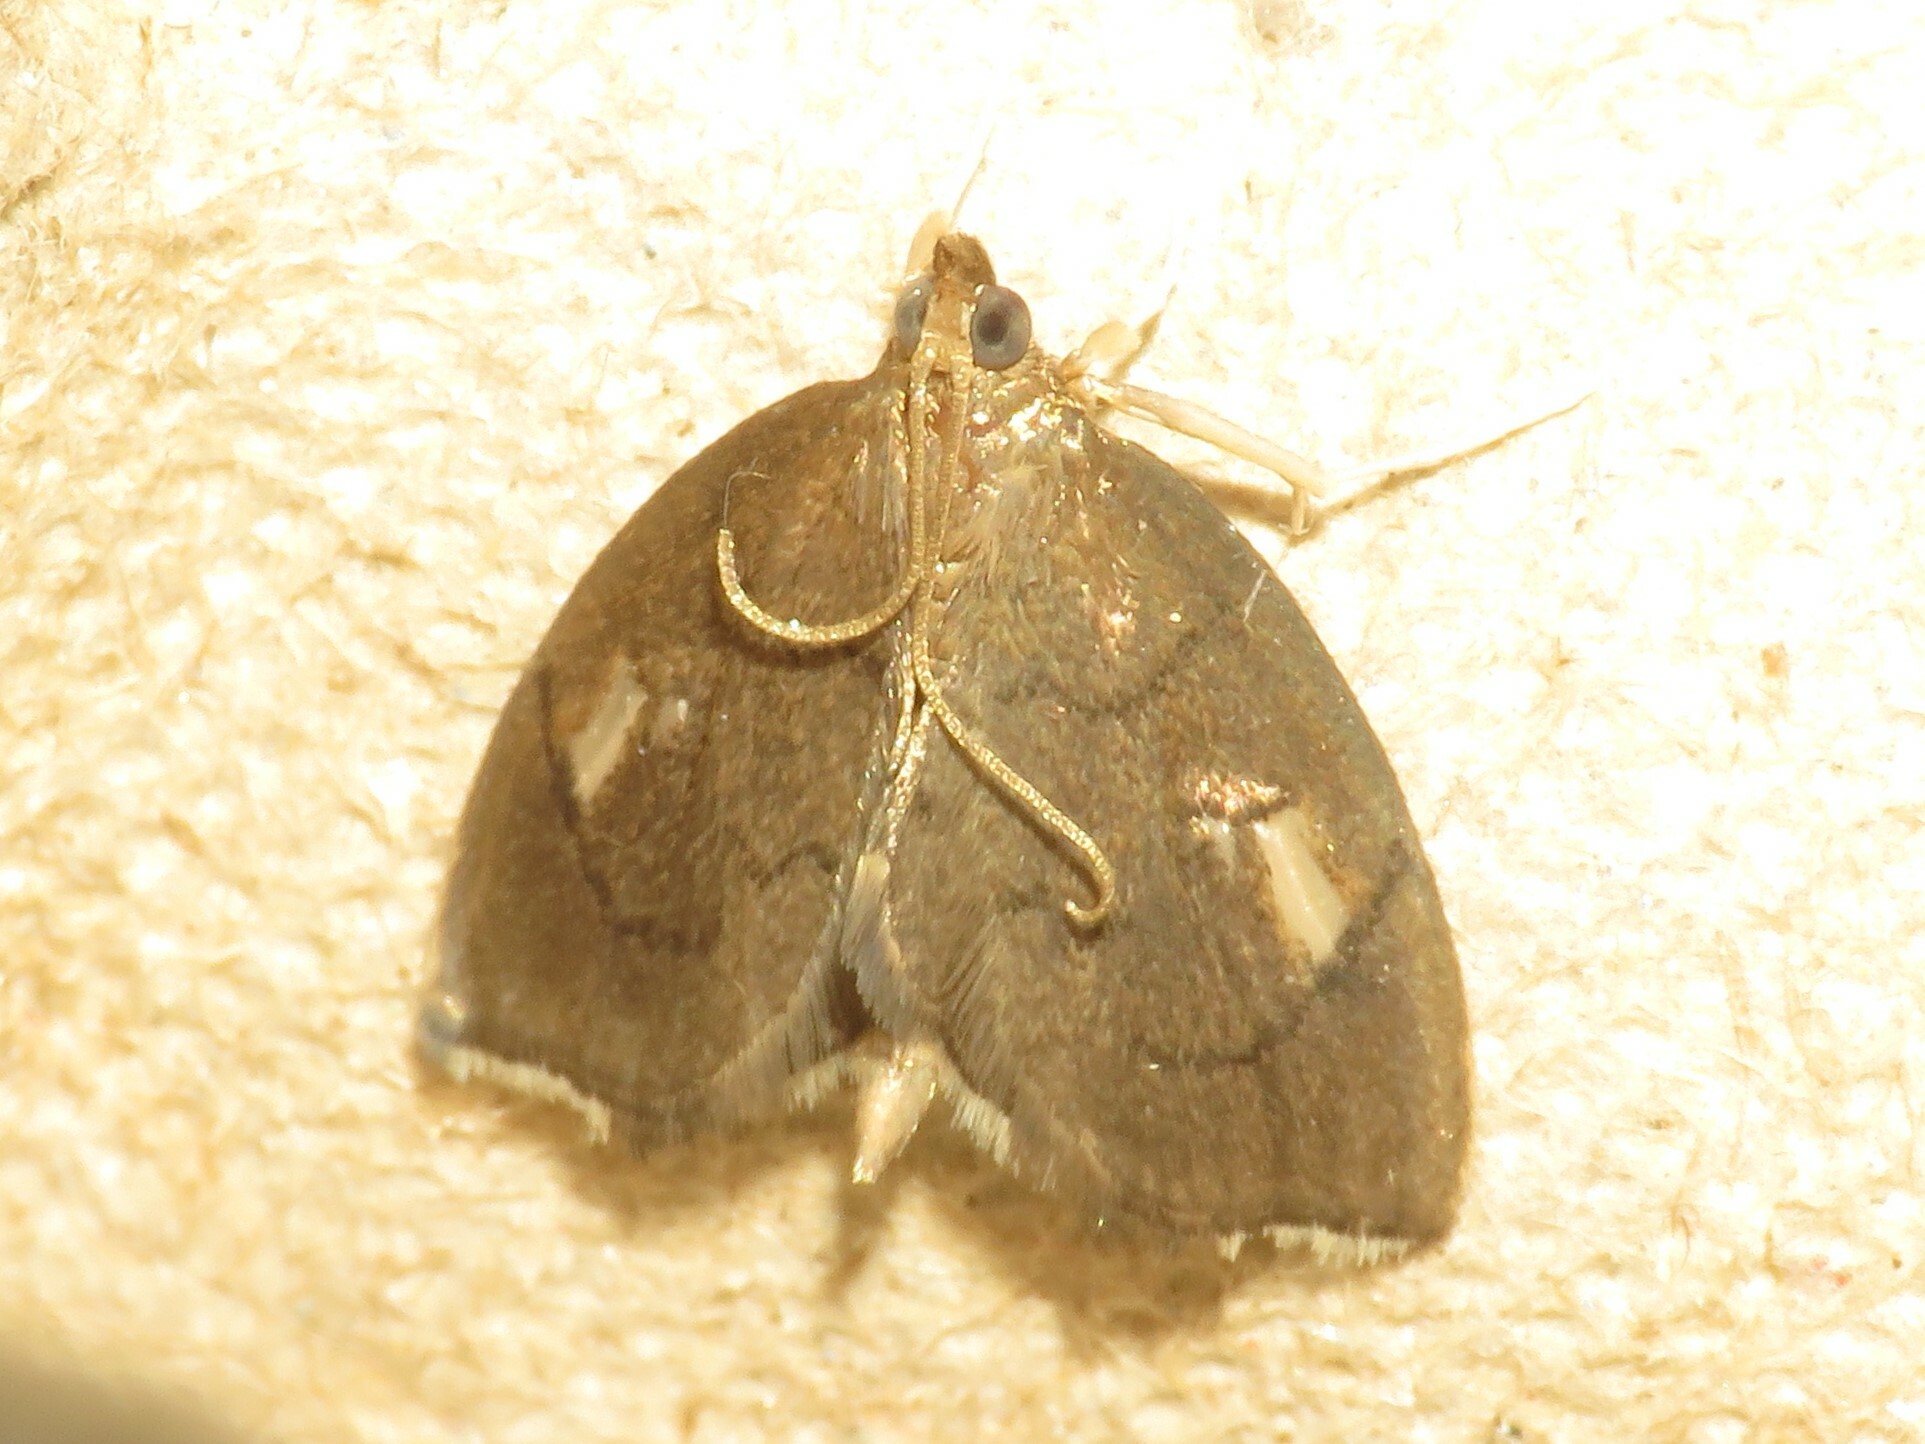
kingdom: Animalia
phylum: Arthropoda
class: Insecta
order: Lepidoptera
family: Crambidae
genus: Perispasta
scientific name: Perispasta caeculalis
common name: Titian peale's moth
